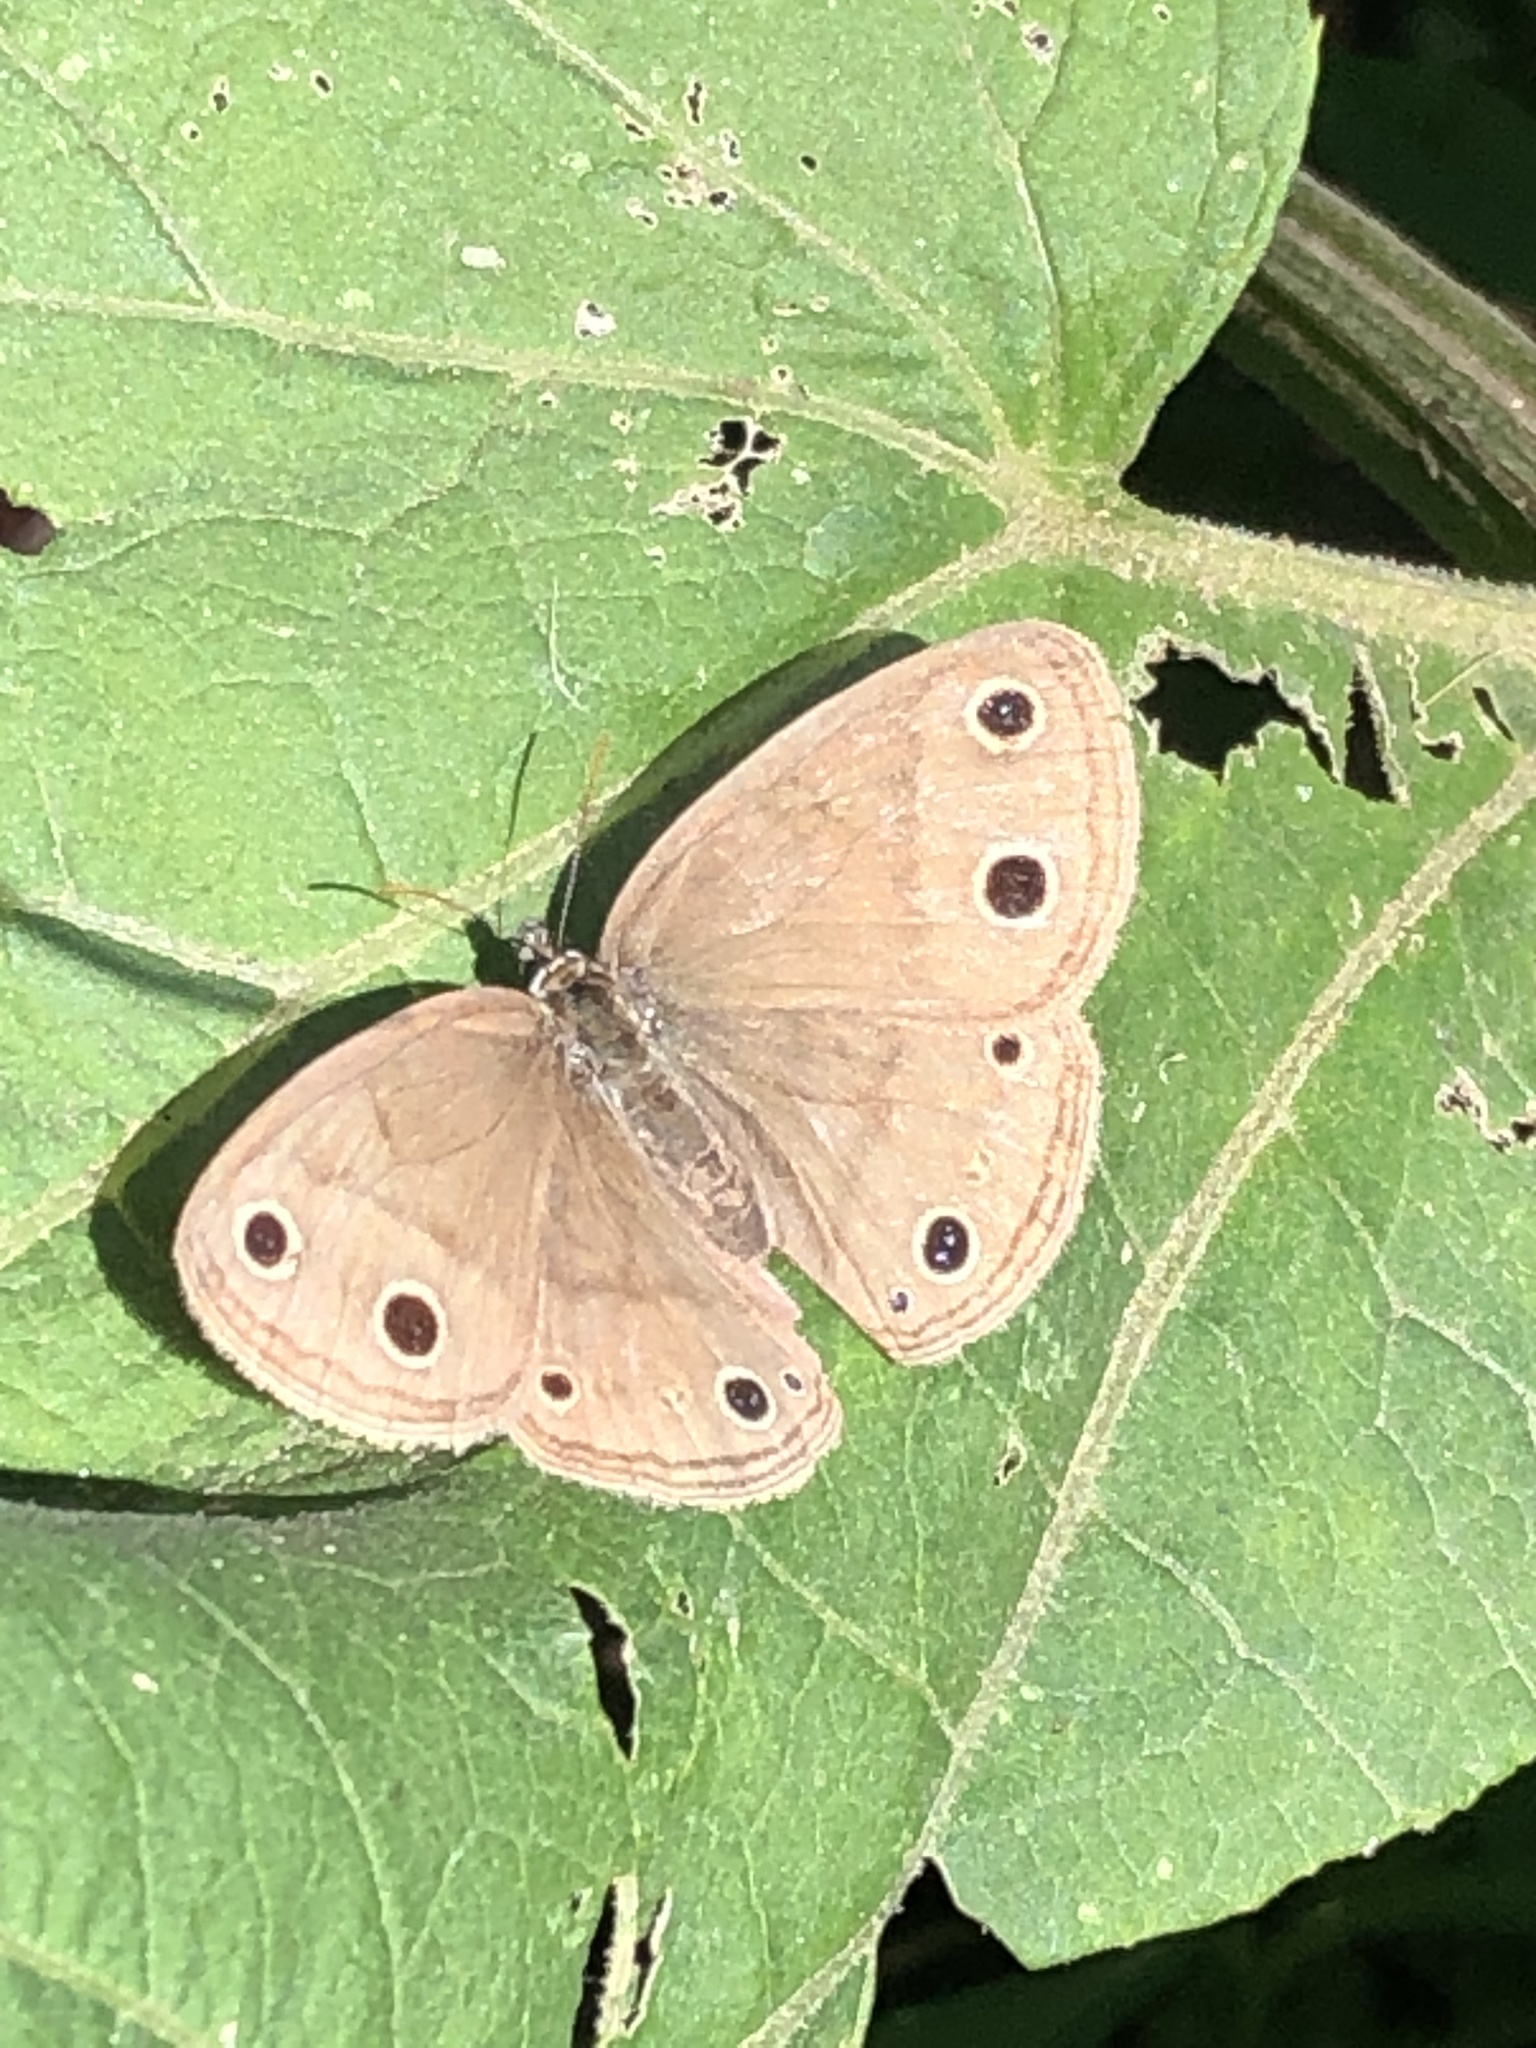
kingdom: Animalia
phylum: Arthropoda
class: Insecta
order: Lepidoptera
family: Nymphalidae
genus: Euptychia
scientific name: Euptychia cymela
